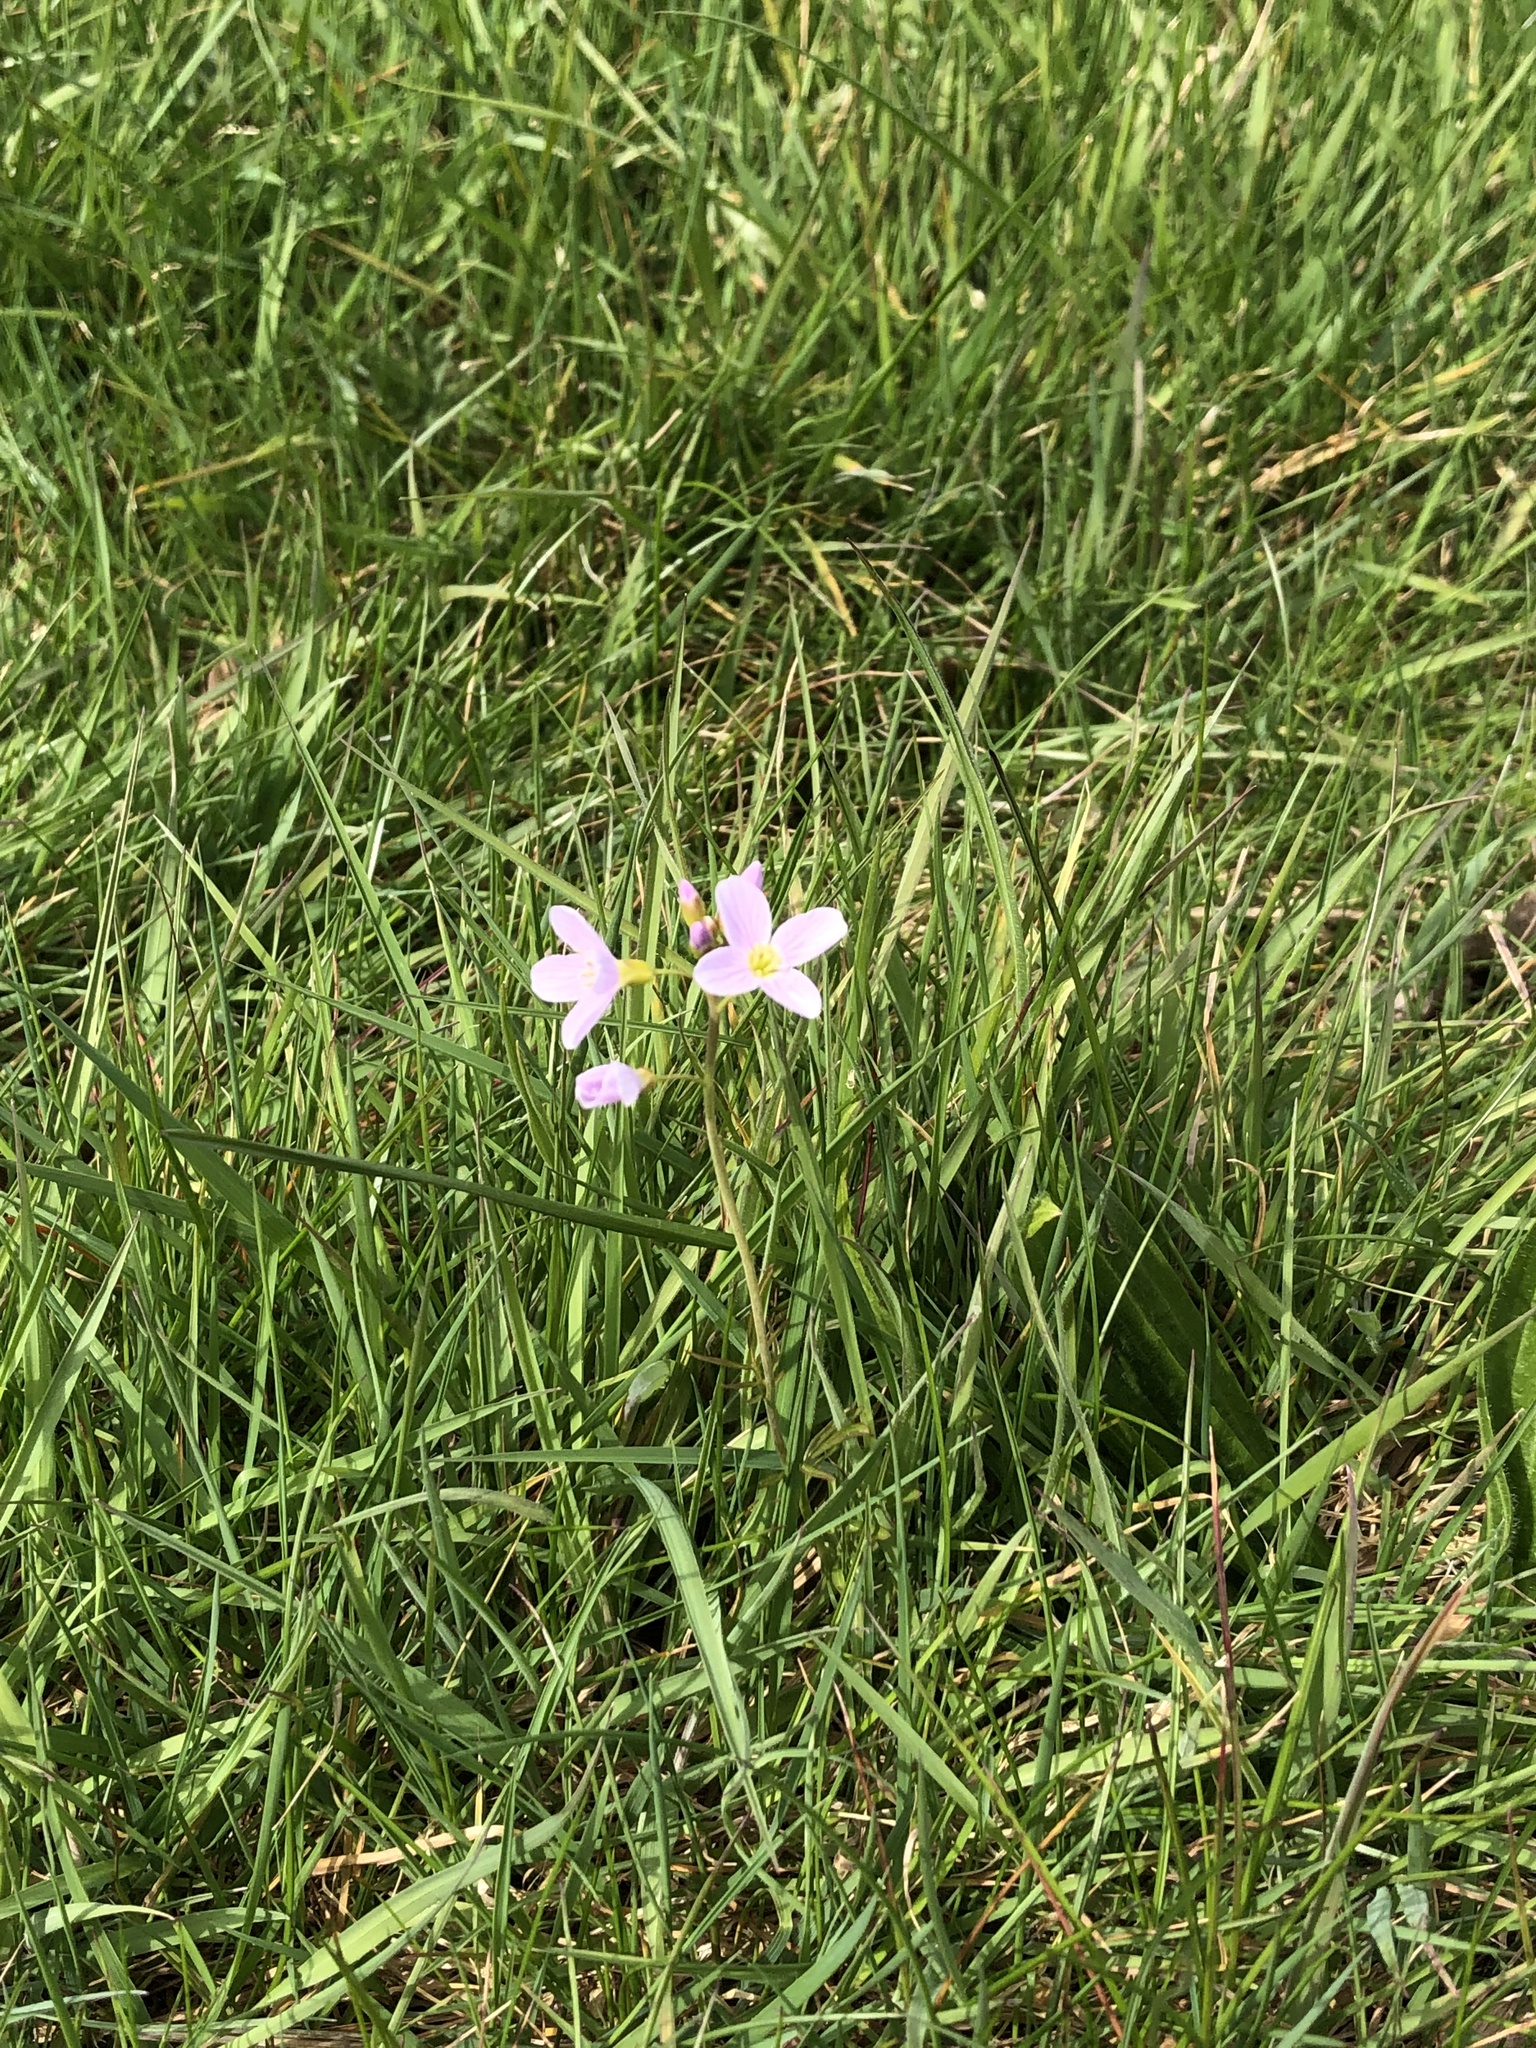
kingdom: Plantae
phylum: Tracheophyta
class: Magnoliopsida
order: Brassicales
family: Brassicaceae
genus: Cardamine
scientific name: Cardamine pratensis
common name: Cuckoo flower
